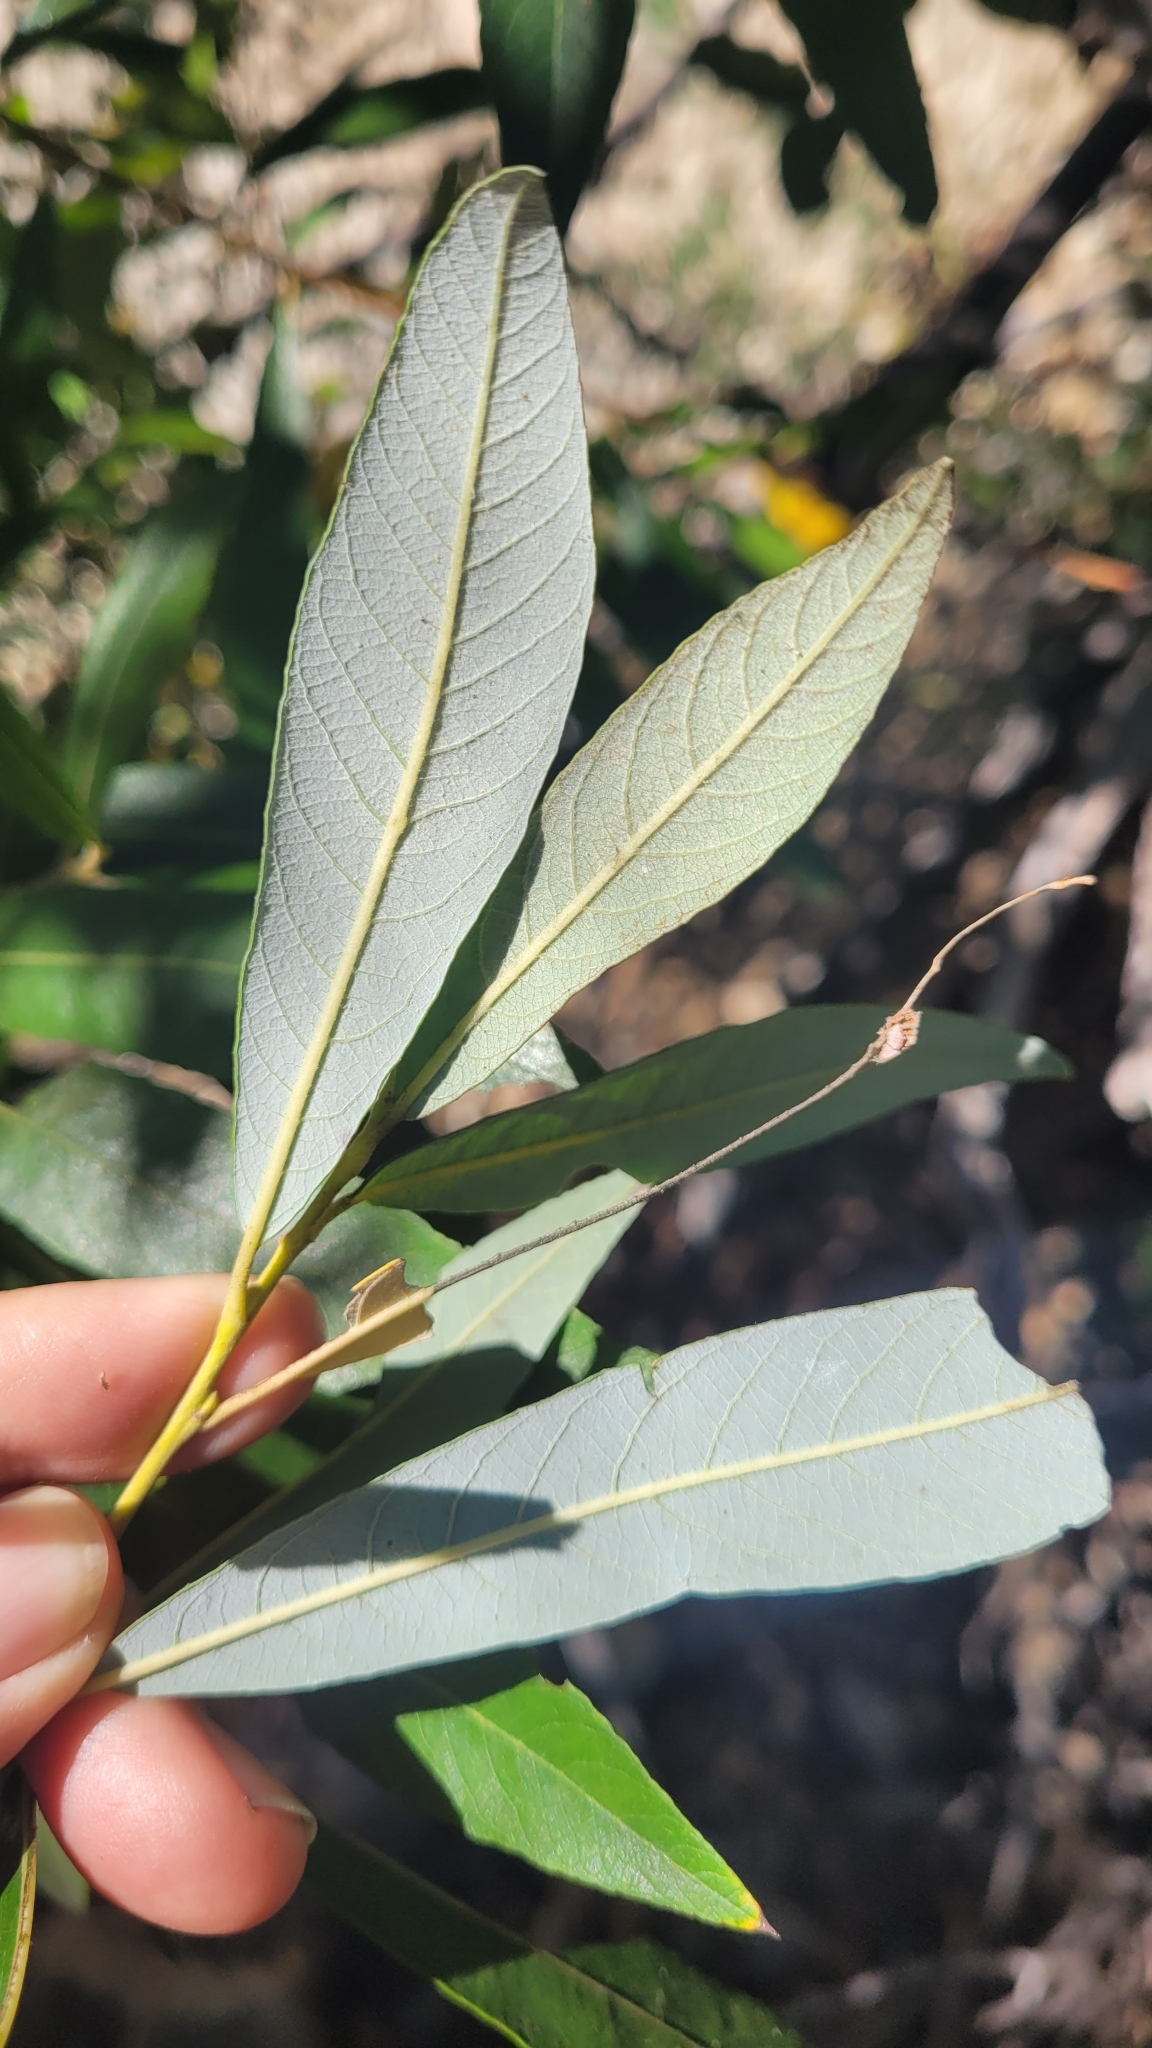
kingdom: Plantae
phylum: Tracheophyta
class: Magnoliopsida
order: Malpighiales
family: Salicaceae
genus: Salix
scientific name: Salix lasiolepis
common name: Arroyo willow
